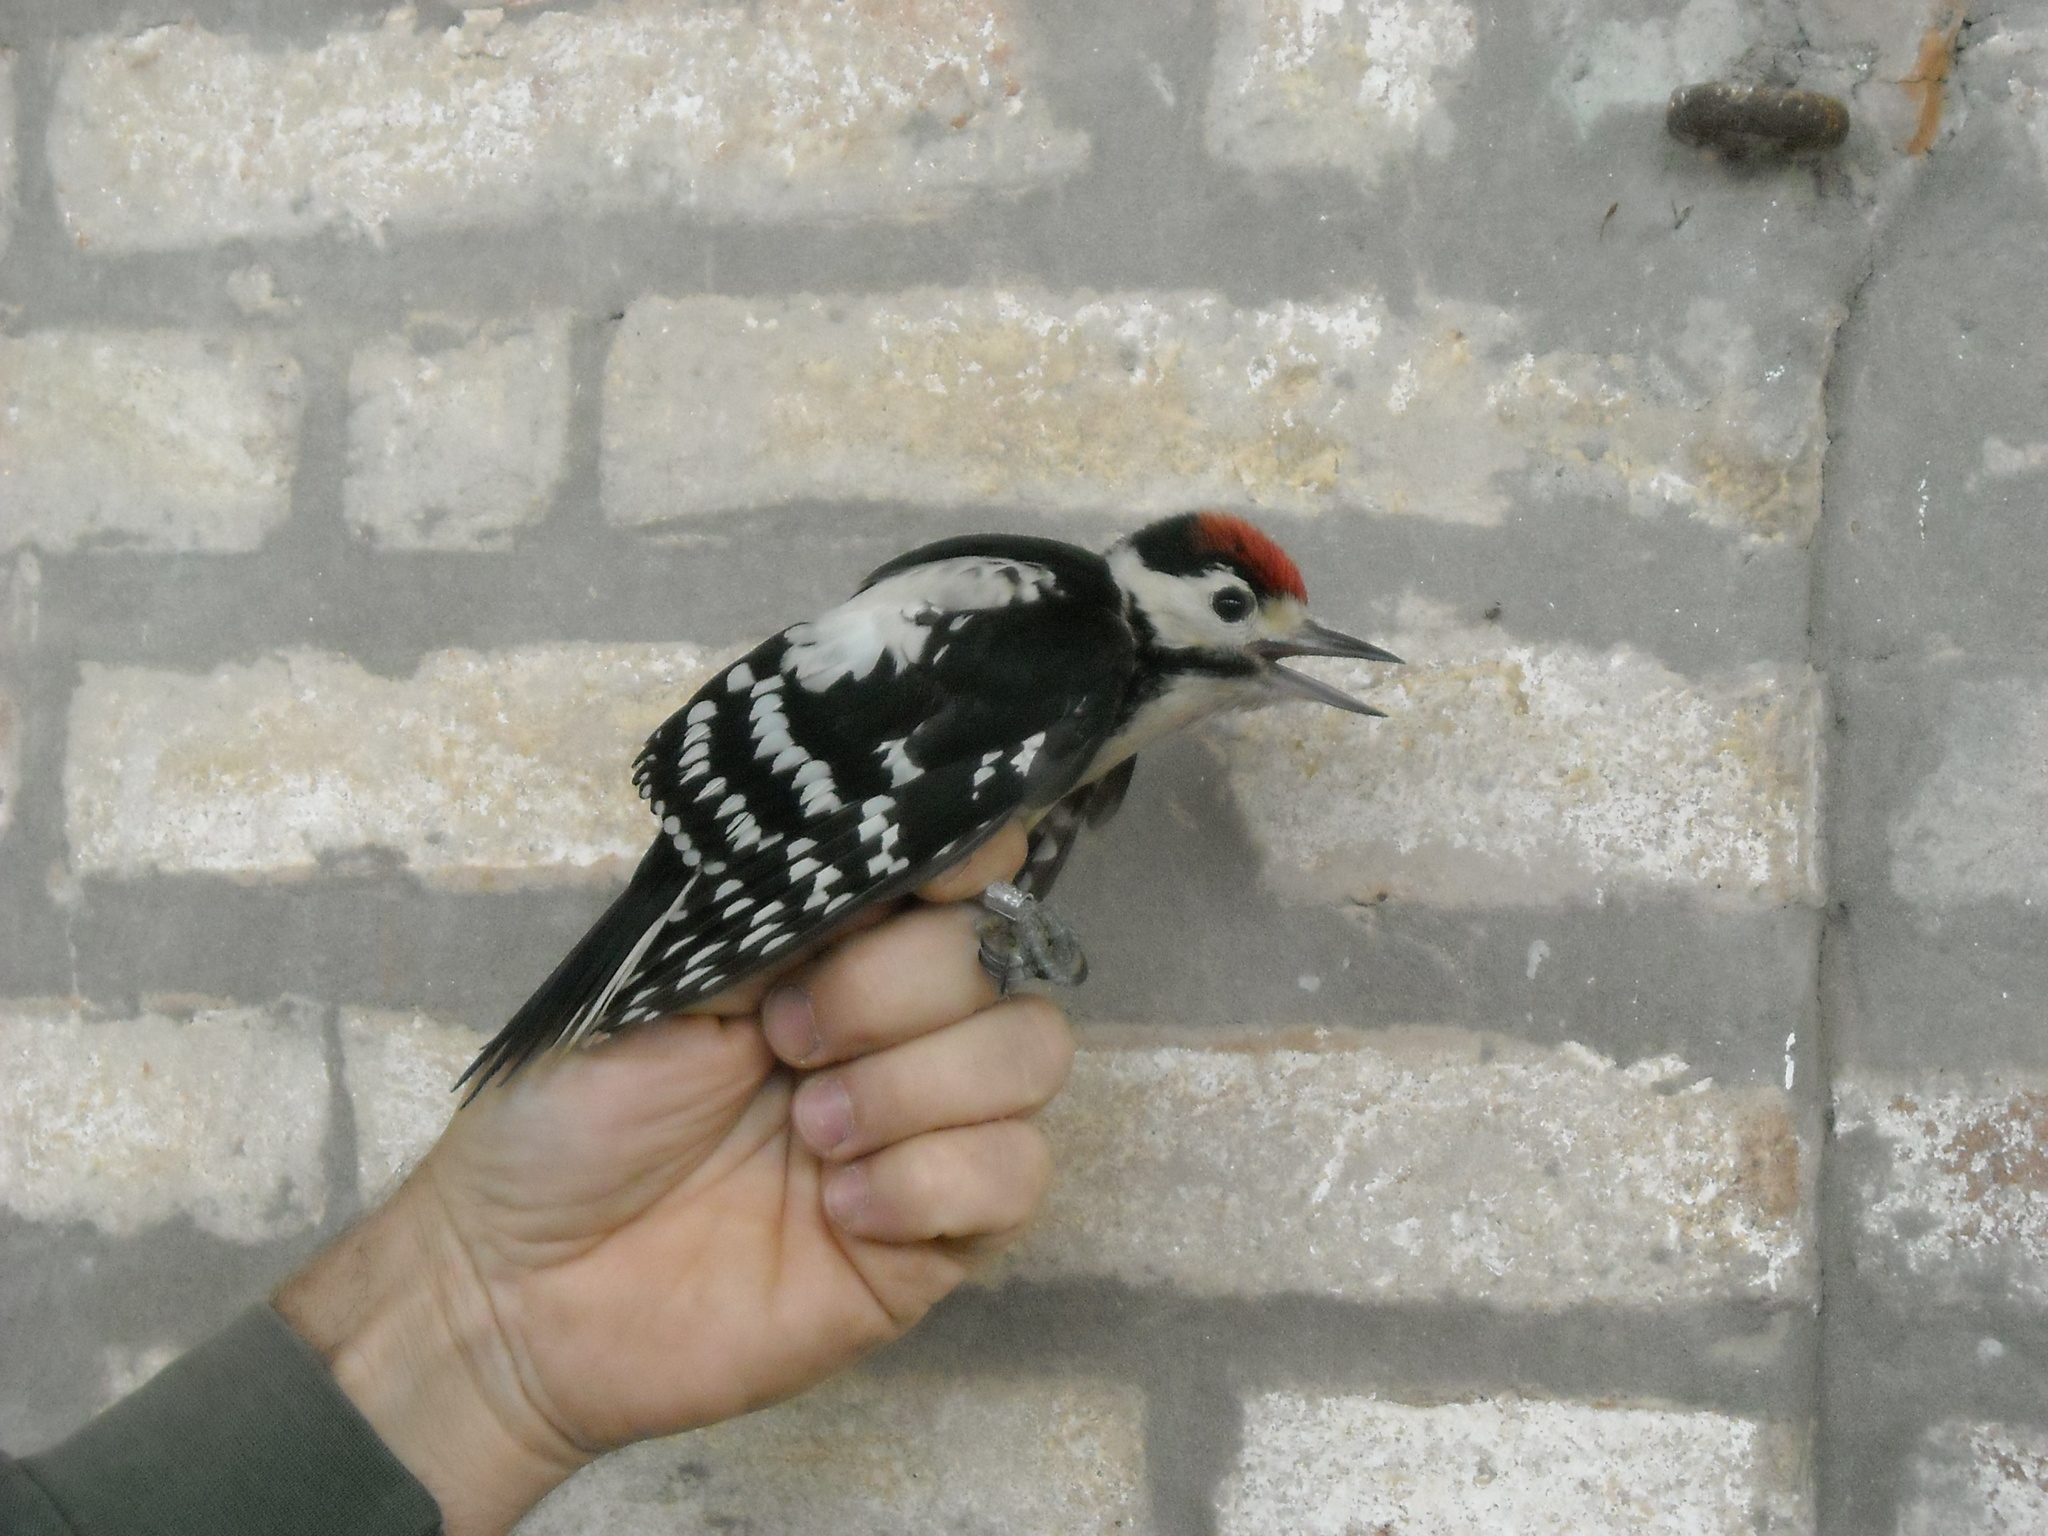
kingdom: Animalia
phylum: Chordata
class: Aves
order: Piciformes
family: Picidae
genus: Dendrocopos
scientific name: Dendrocopos major
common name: Great spotted woodpecker
